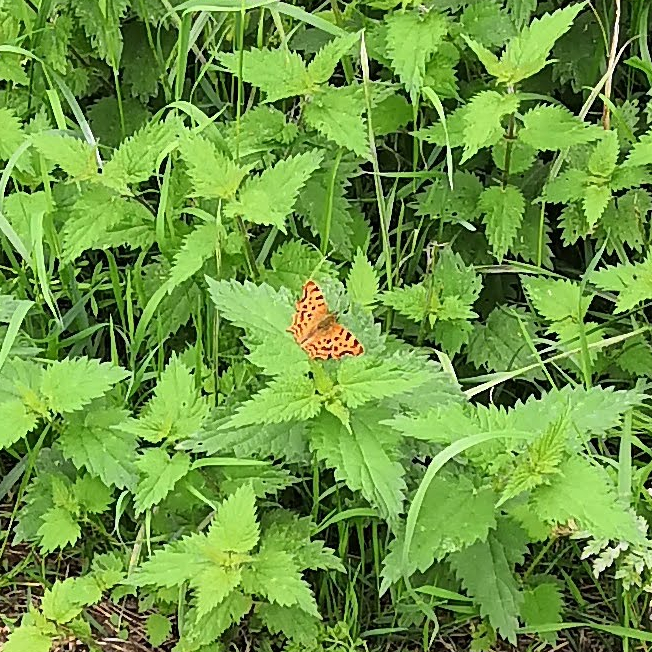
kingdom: Animalia
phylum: Arthropoda
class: Insecta
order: Lepidoptera
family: Nymphalidae
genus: Polygonia
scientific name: Polygonia c-album
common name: Comma
